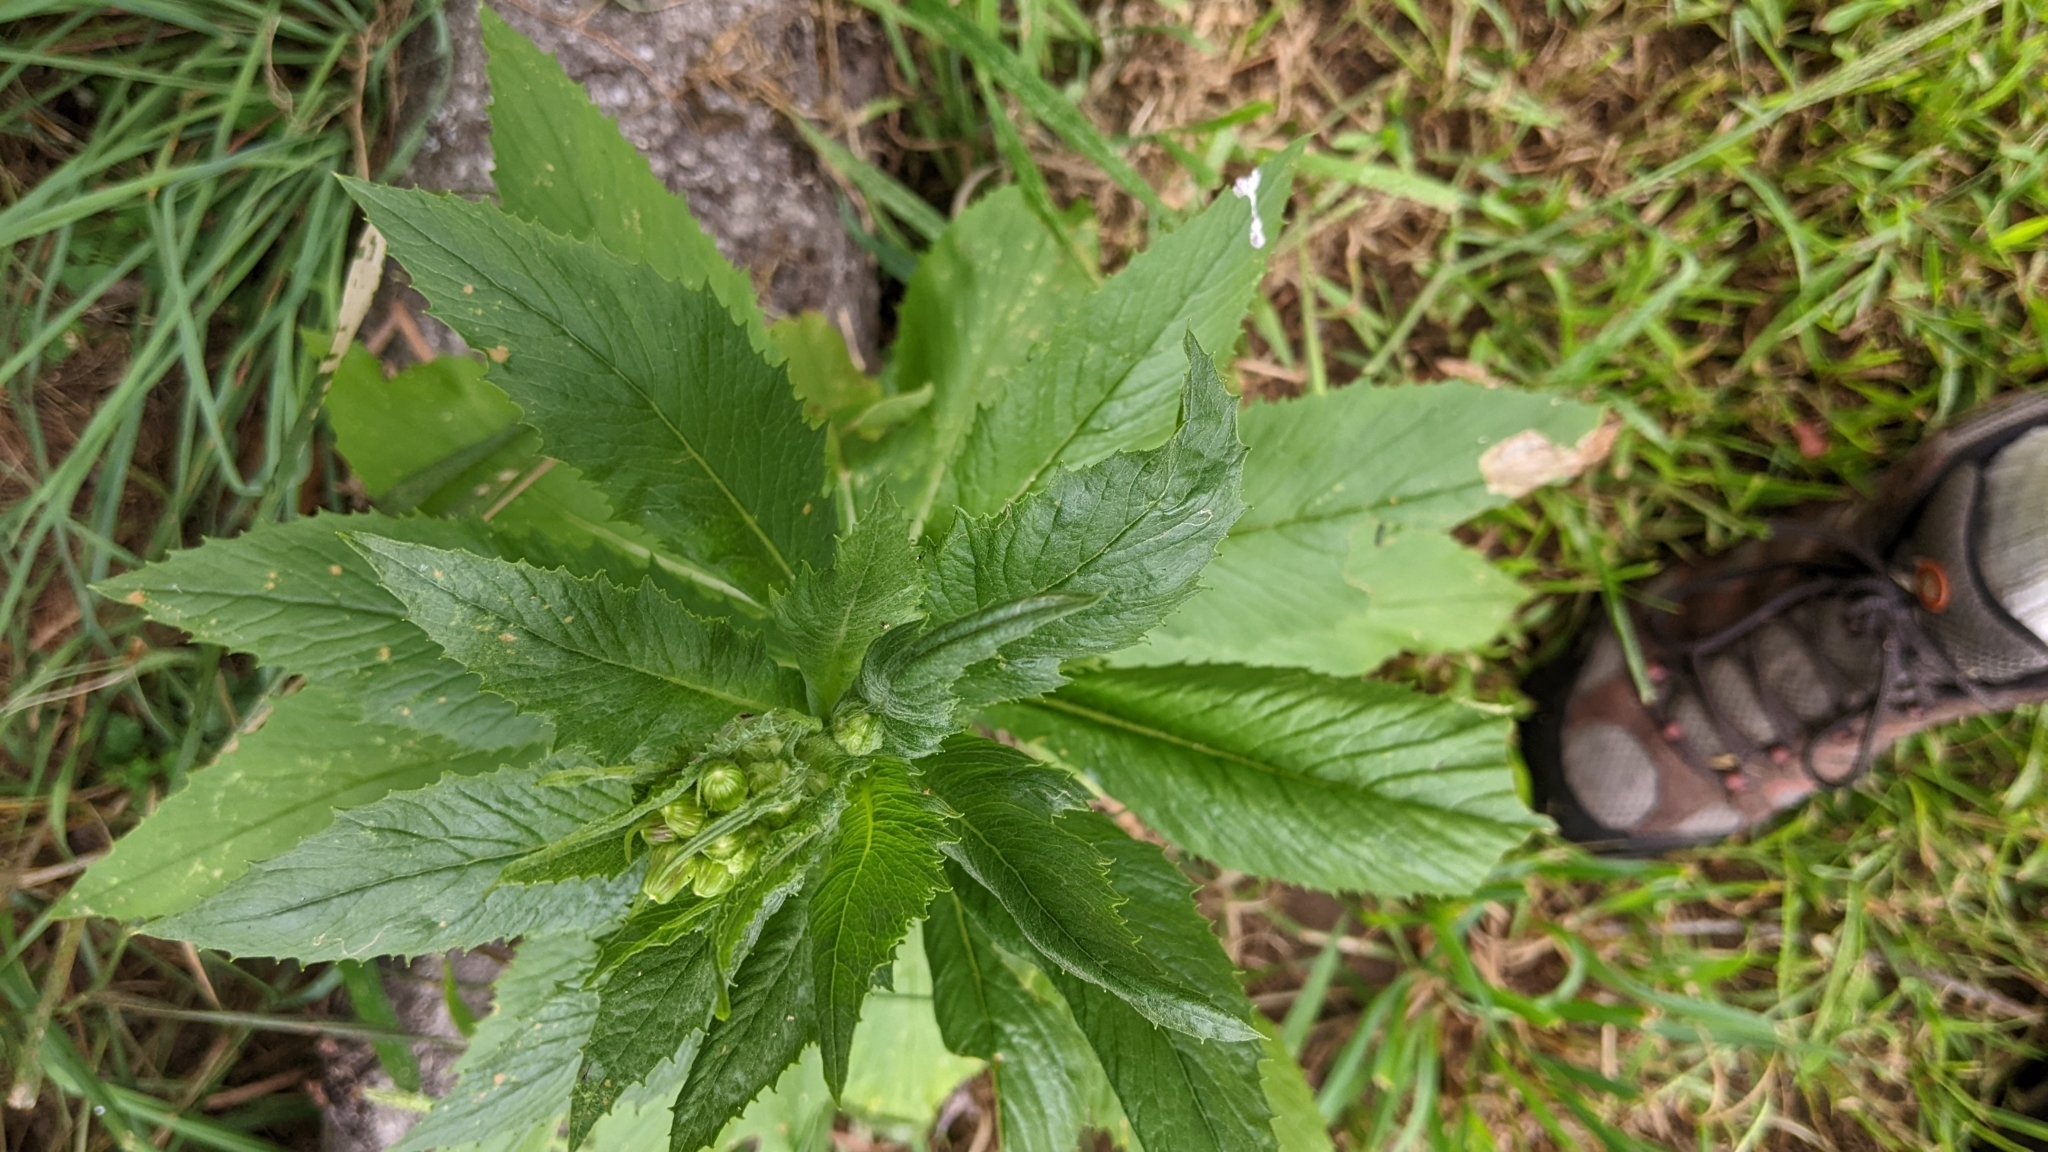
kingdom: Plantae
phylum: Tracheophyta
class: Magnoliopsida
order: Asterales
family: Asteraceae
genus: Erechtites
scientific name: Erechtites hieraciifolius
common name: American burnweed
